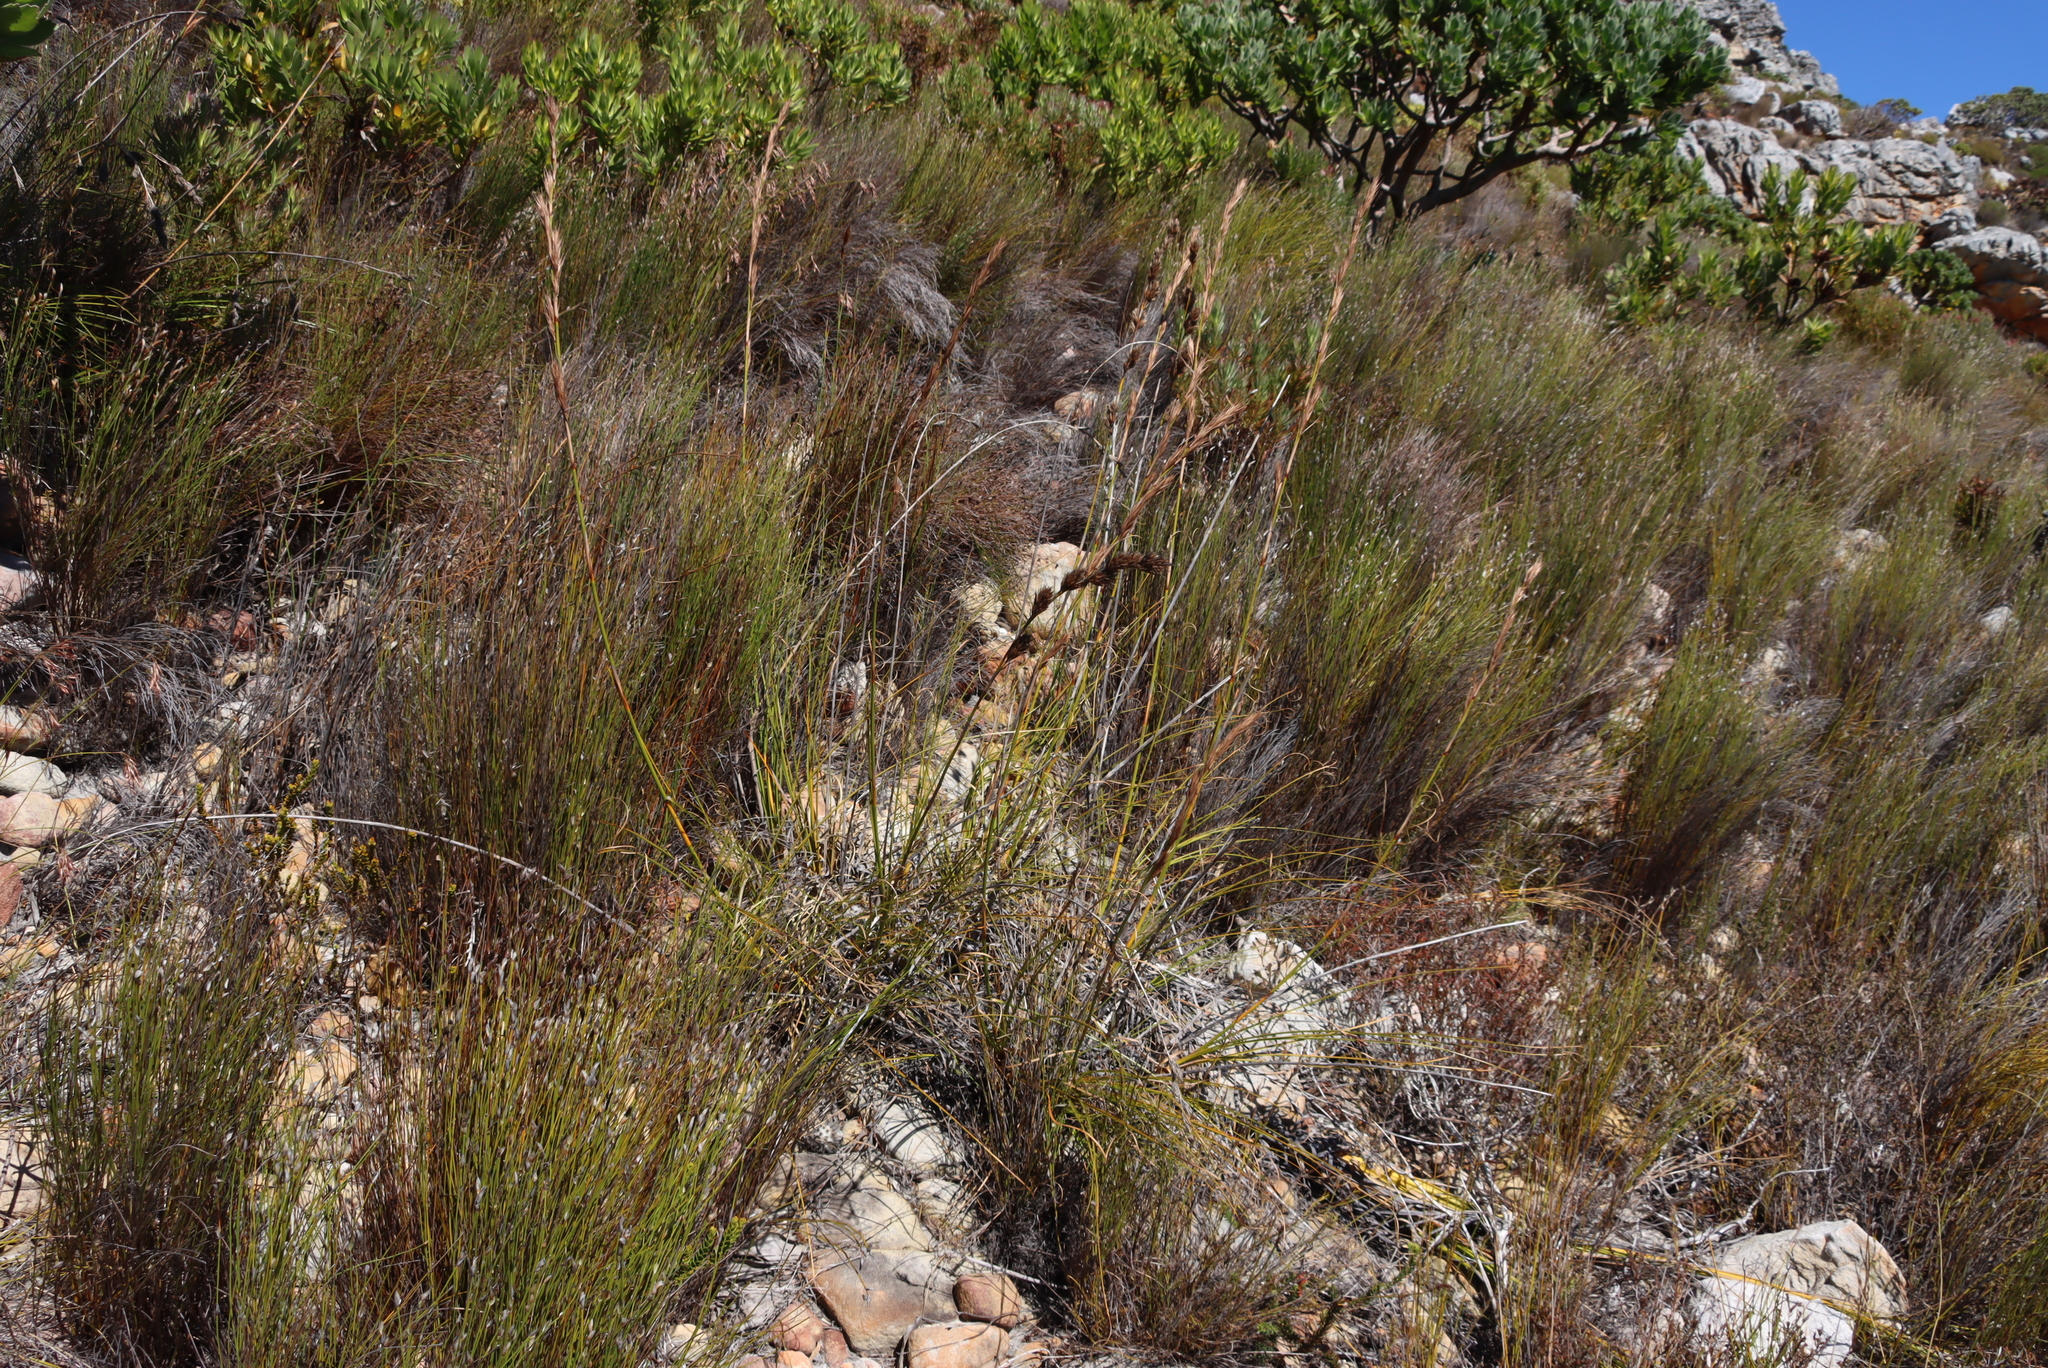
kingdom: Plantae
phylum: Tracheophyta
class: Liliopsida
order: Poales
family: Cyperaceae
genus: Tetraria
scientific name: Tetraria bromoides
